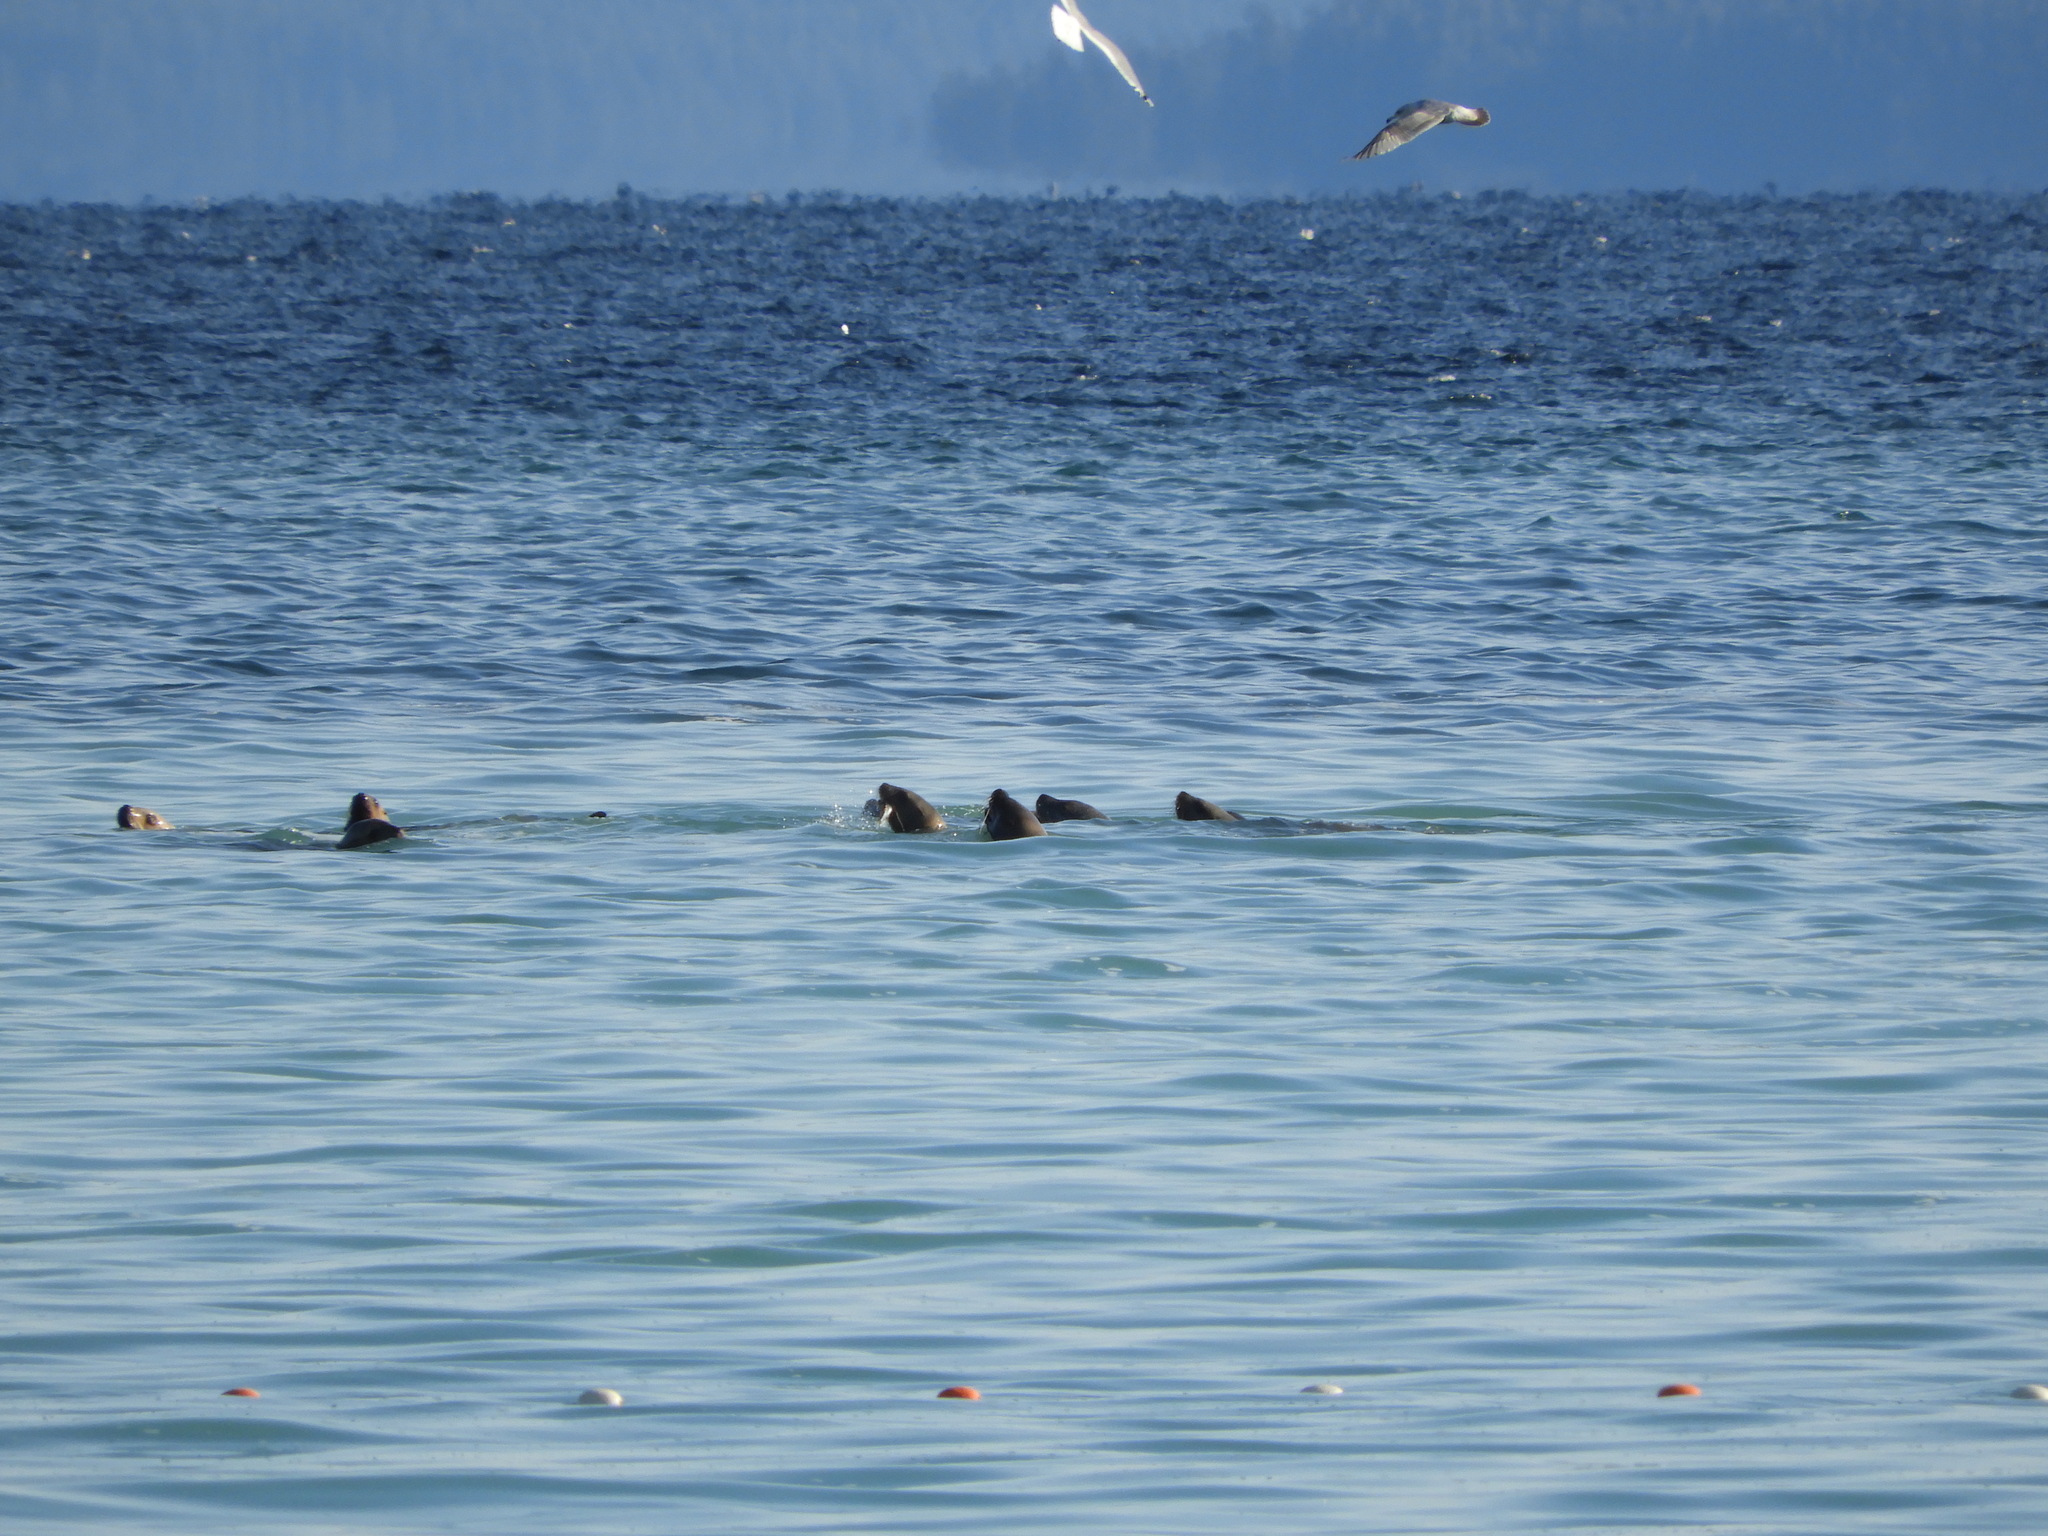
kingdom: Animalia
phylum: Chordata
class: Mammalia
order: Carnivora
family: Otariidae
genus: Eumetopias
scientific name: Eumetopias jubatus
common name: Steller sea lion
